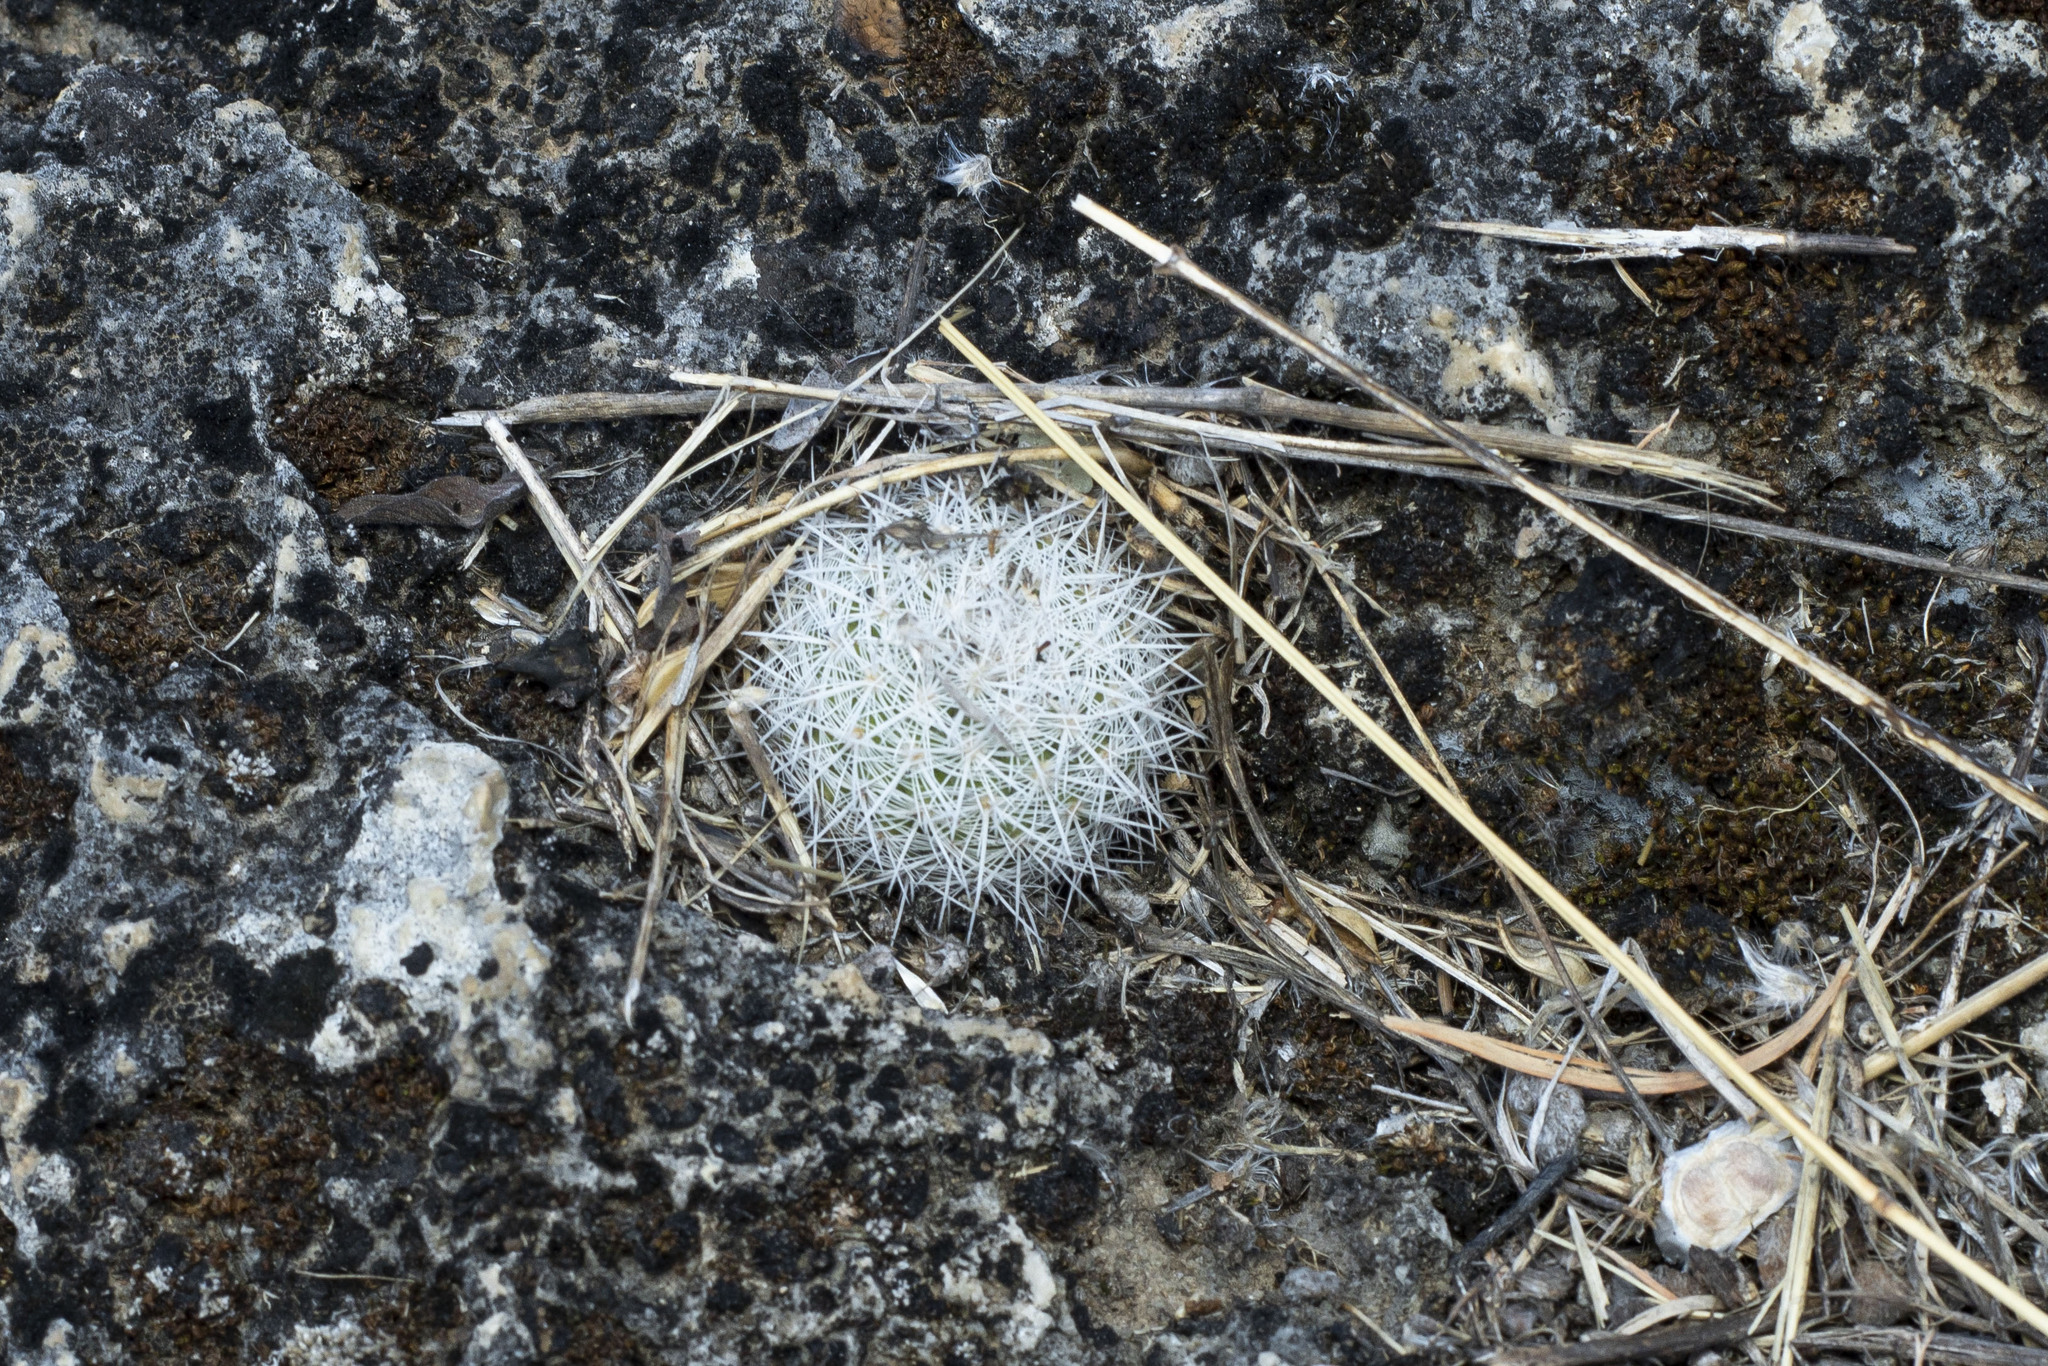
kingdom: Plantae
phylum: Tracheophyta
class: Magnoliopsida
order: Caryophyllales
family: Cactaceae
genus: Mammillaria
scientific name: Mammillaria albilanata
